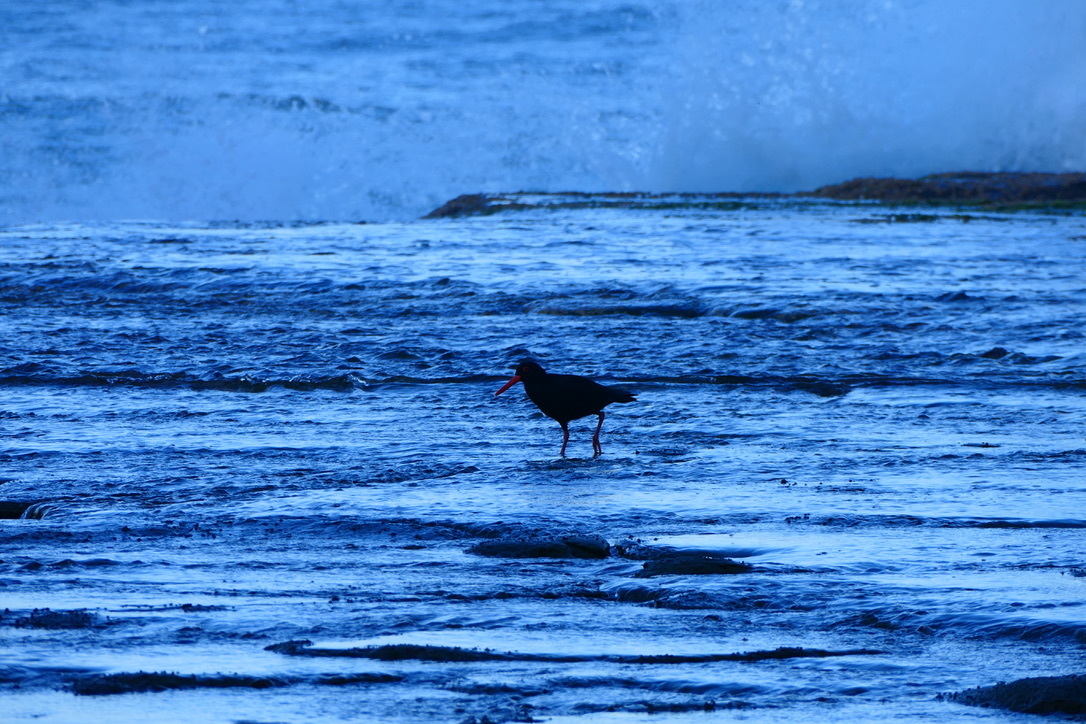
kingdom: Animalia
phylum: Chordata
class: Aves
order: Charadriiformes
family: Haematopodidae
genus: Haematopus
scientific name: Haematopus fuliginosus
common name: Sooty oystercatcher
